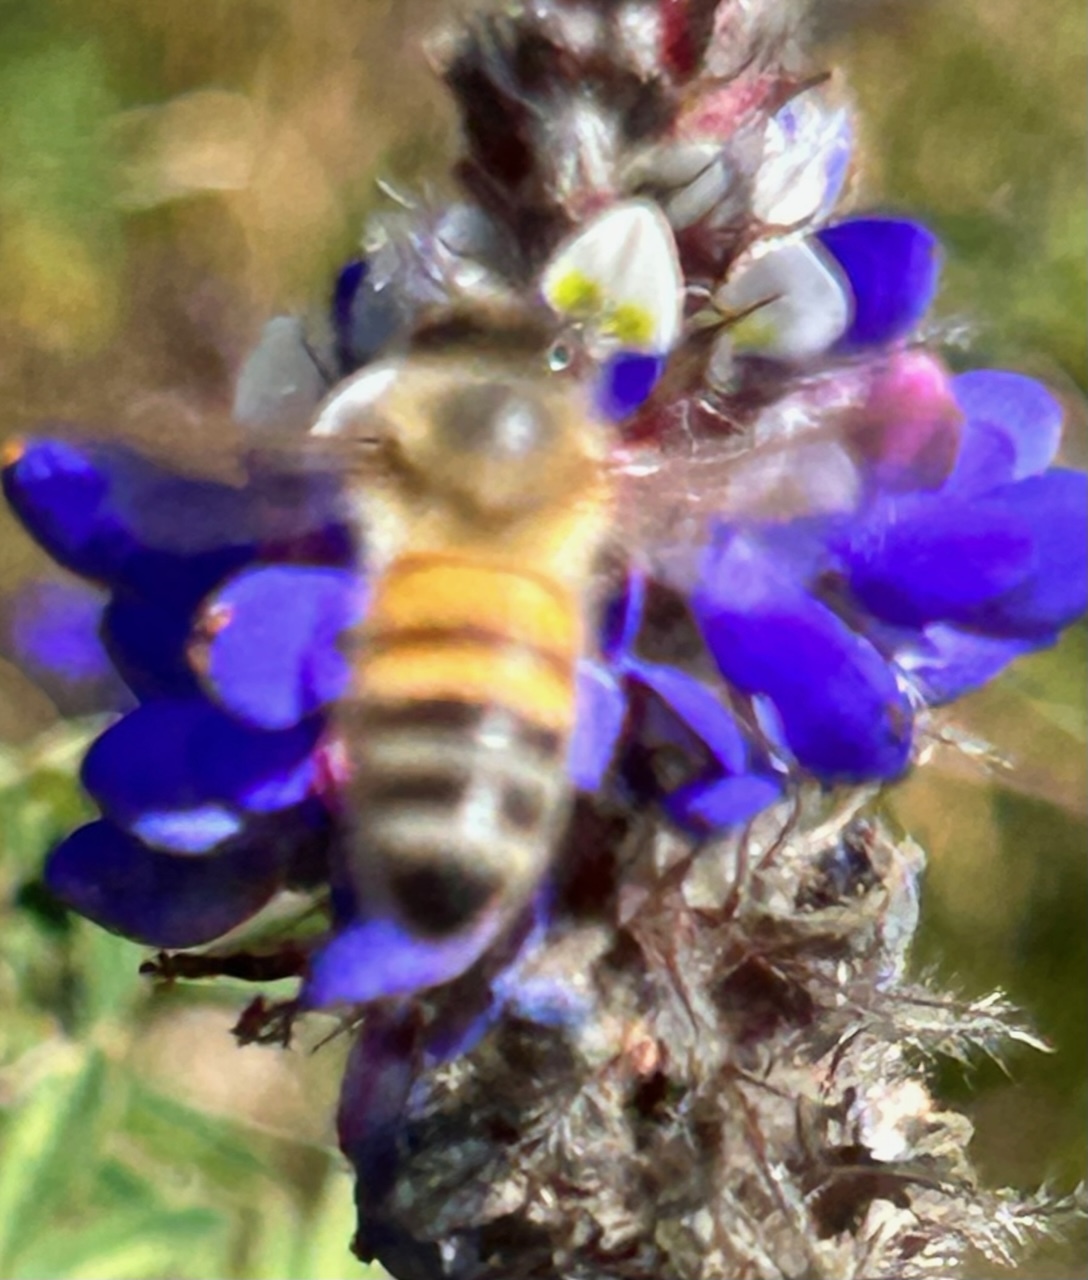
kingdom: Animalia
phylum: Arthropoda
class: Insecta
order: Hymenoptera
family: Apidae
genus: Apis
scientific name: Apis mellifera
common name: Honey bee
